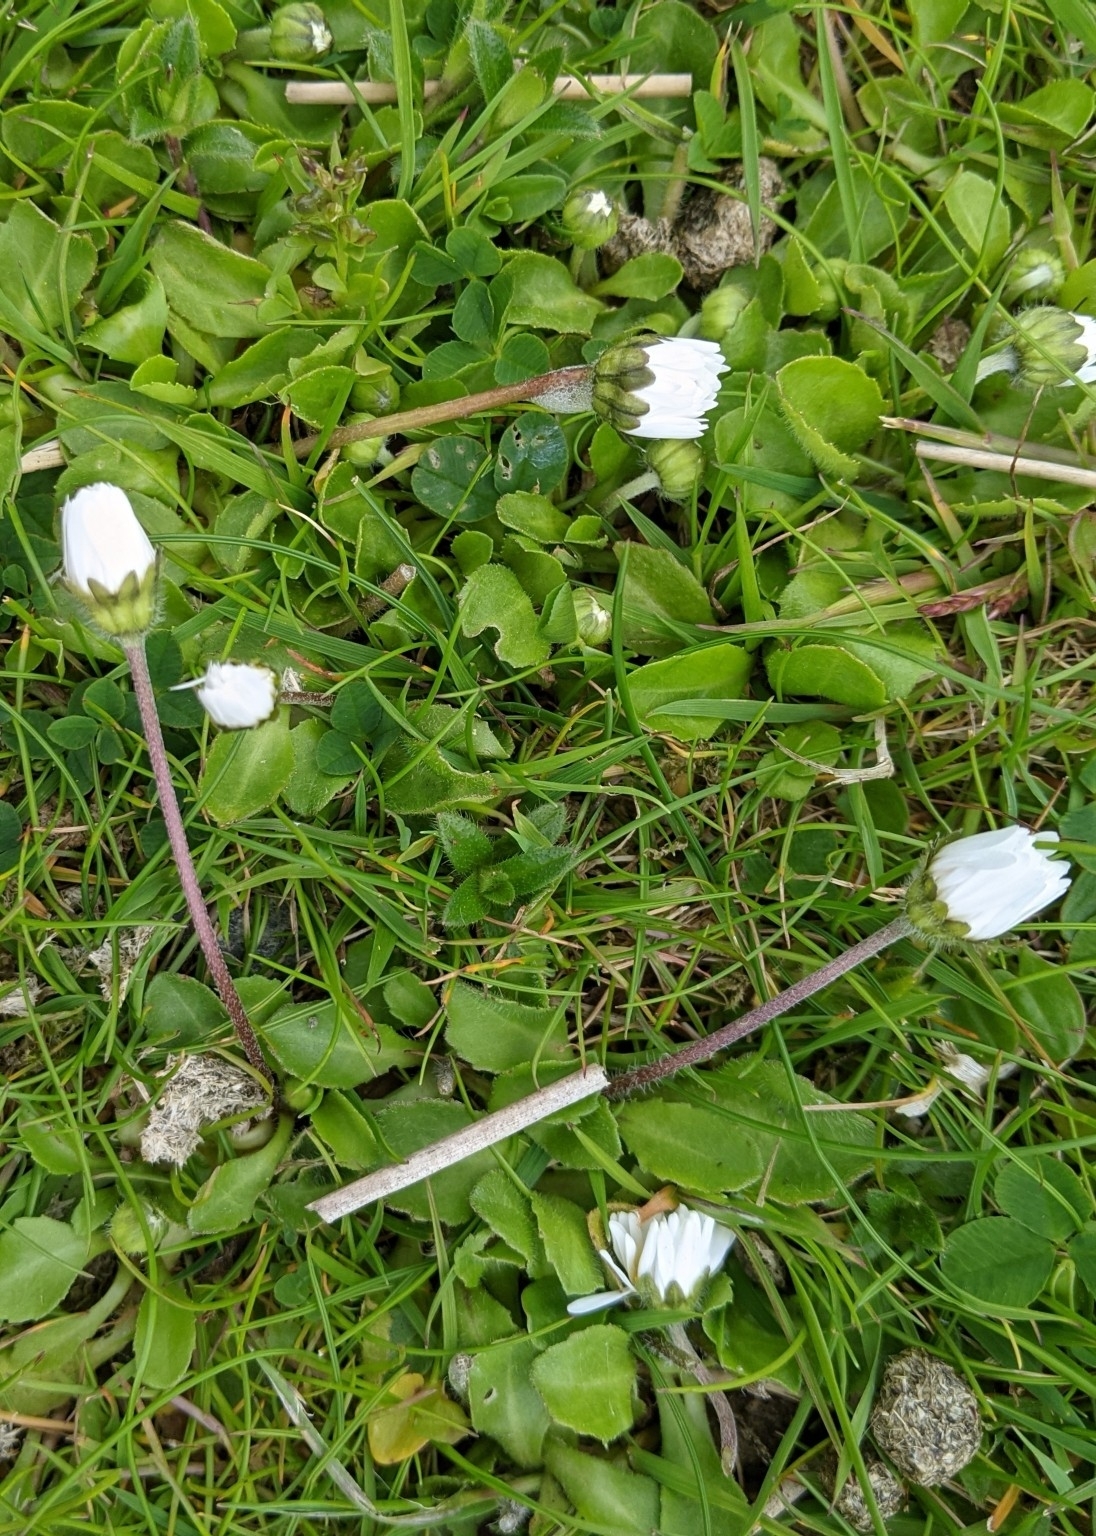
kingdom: Plantae
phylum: Tracheophyta
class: Magnoliopsida
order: Asterales
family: Asteraceae
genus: Bellis
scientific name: Bellis perennis
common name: Lawndaisy
